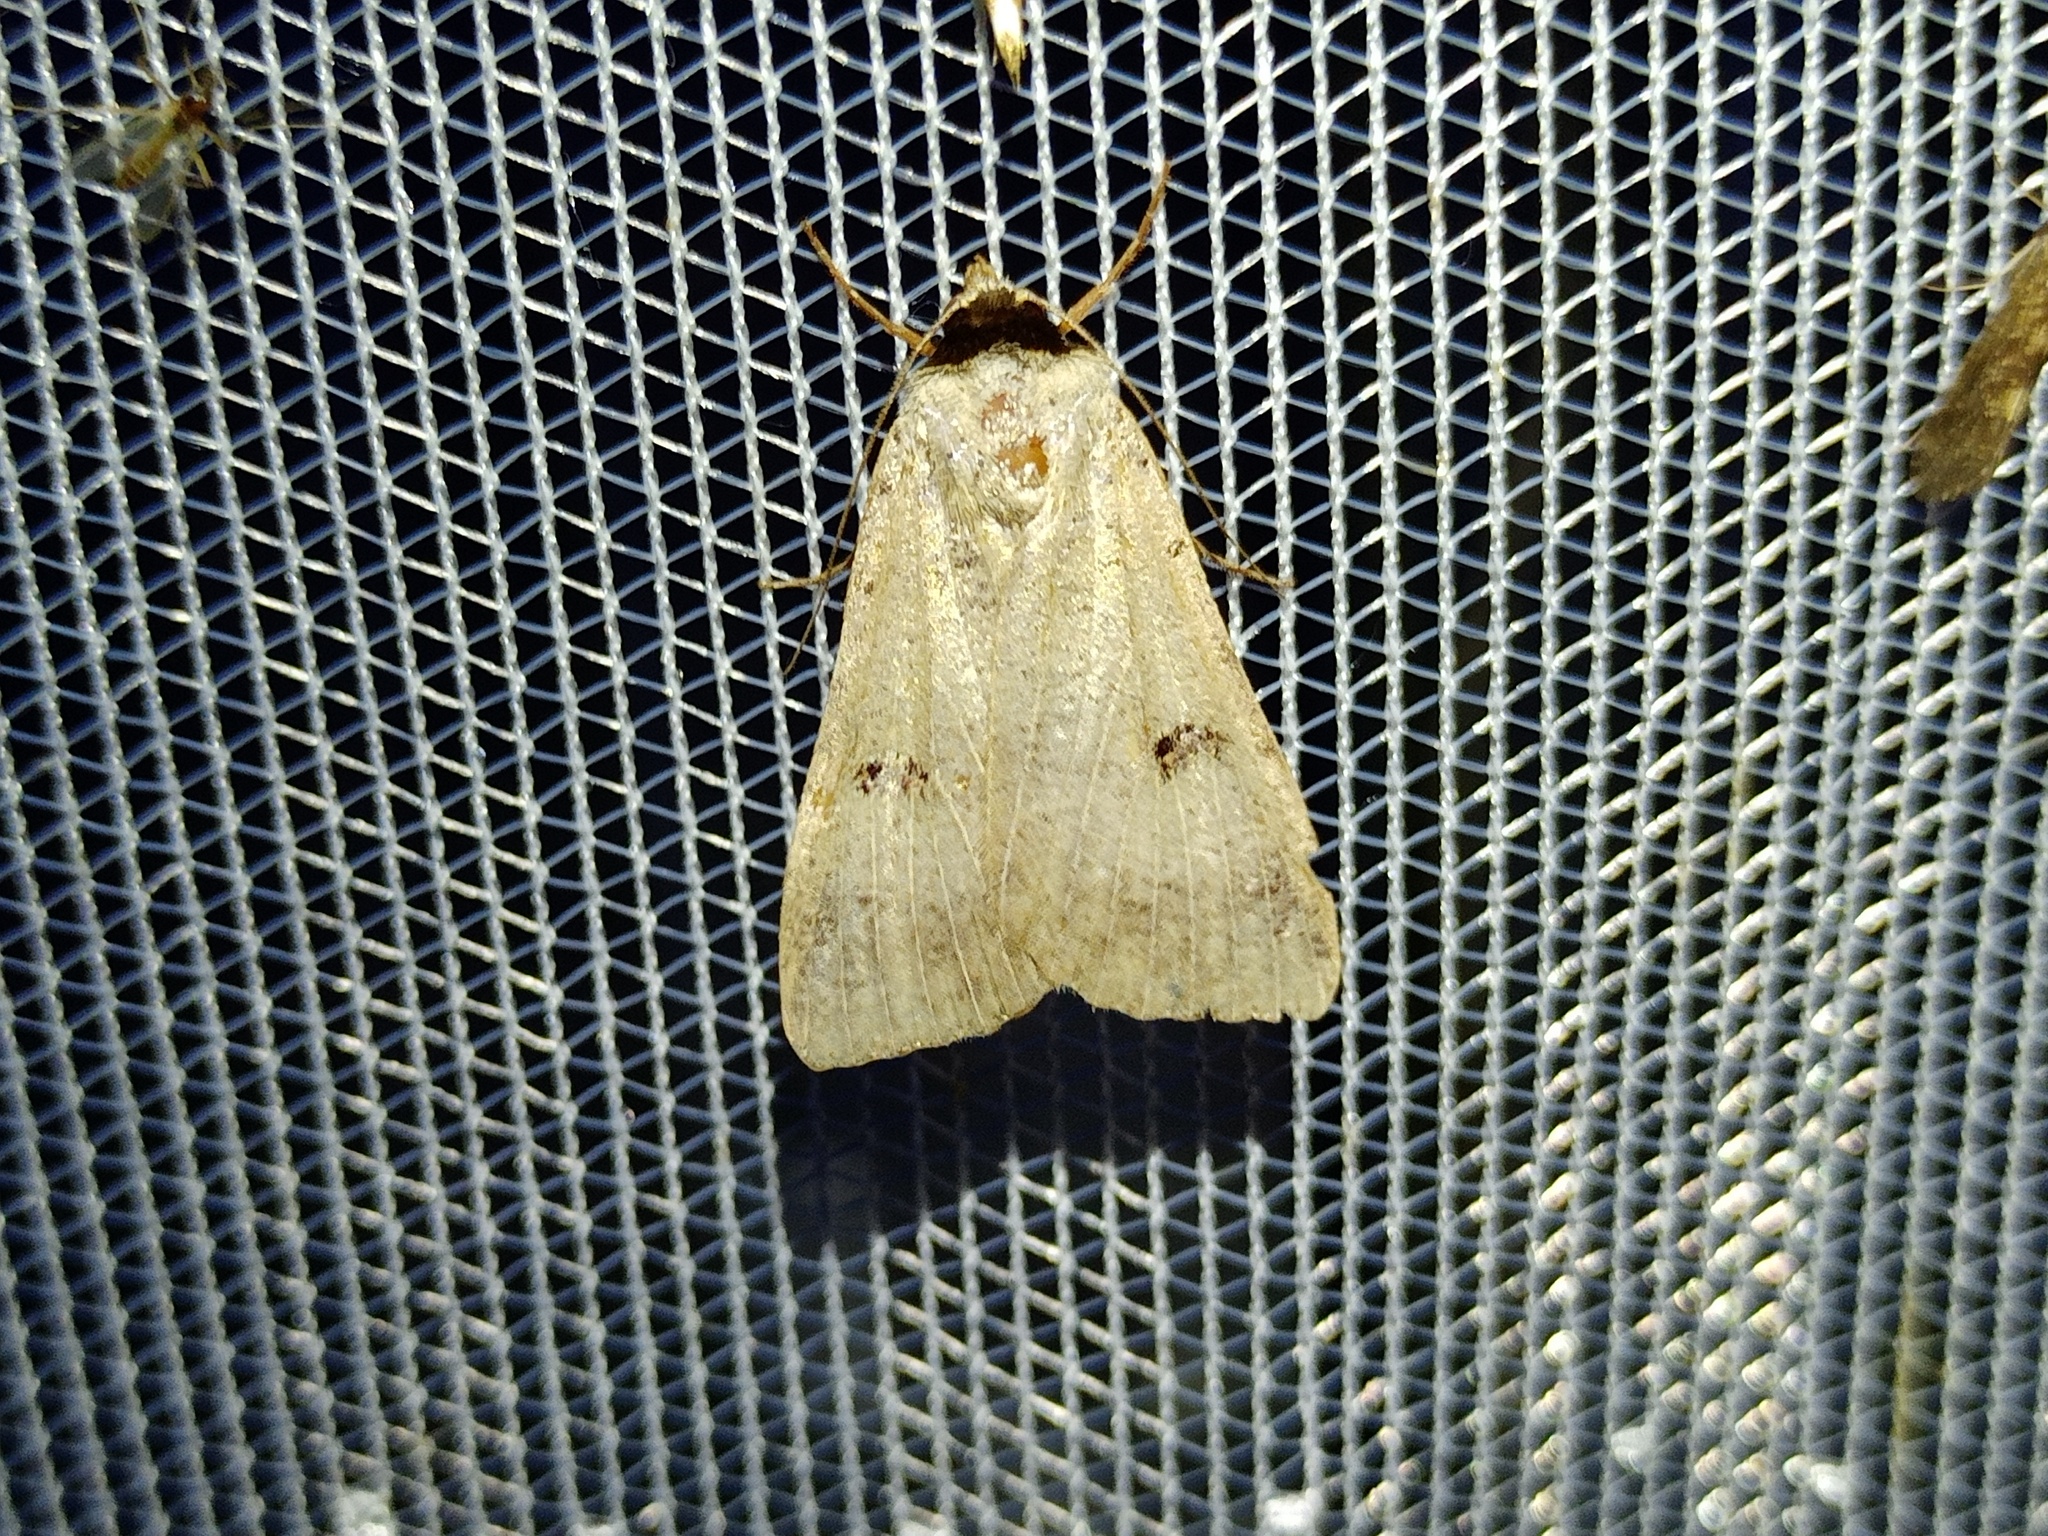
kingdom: Animalia
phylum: Arthropoda
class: Insecta
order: Lepidoptera
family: Erebidae
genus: Lygephila
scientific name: Lygephila craccae
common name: Scarce blackneck
